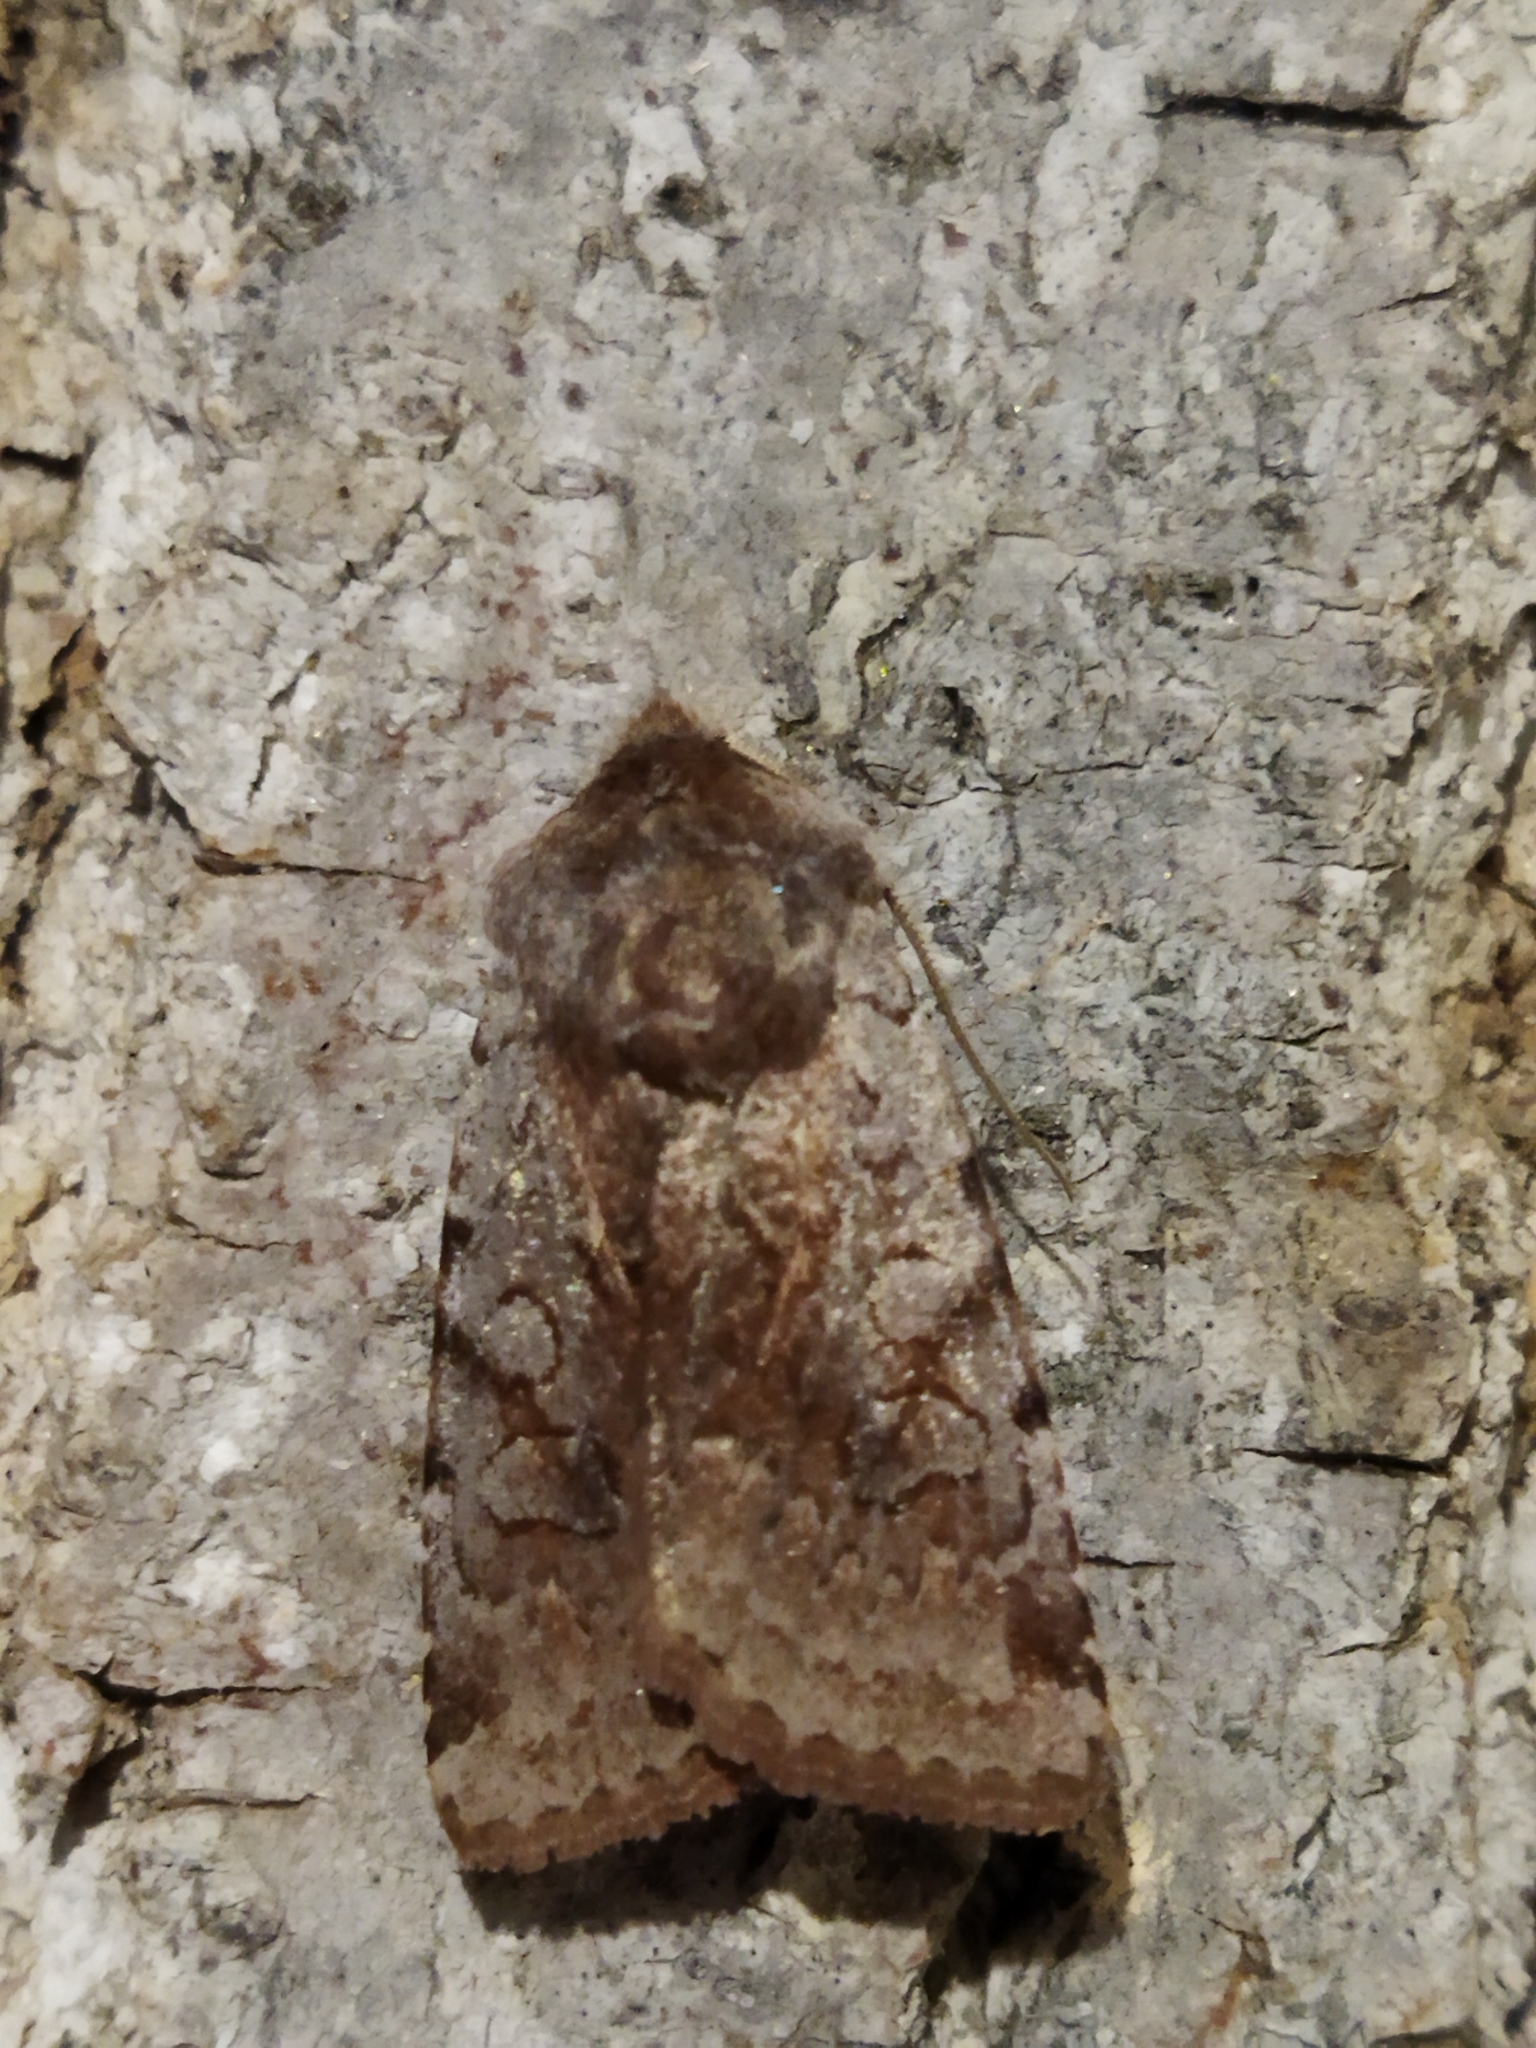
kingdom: Animalia
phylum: Arthropoda
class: Insecta
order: Lepidoptera
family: Noctuidae
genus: Cerastis
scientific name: Cerastis rubricosa
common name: Red chestnut
